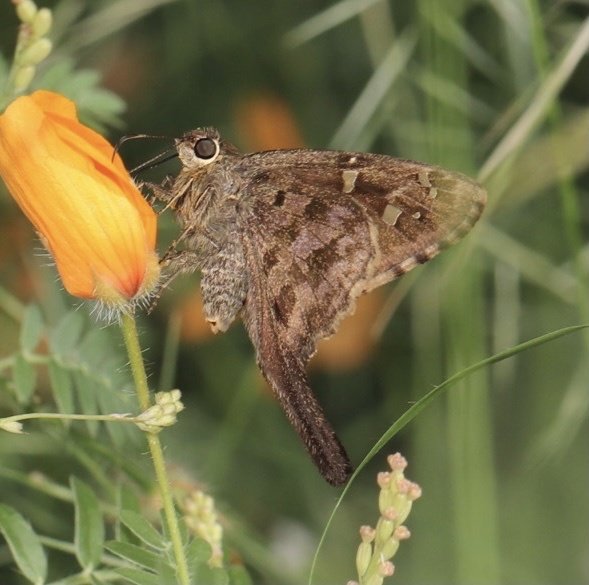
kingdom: Animalia
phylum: Arthropoda
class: Insecta
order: Lepidoptera
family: Hesperiidae
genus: Thorybes
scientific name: Thorybes
